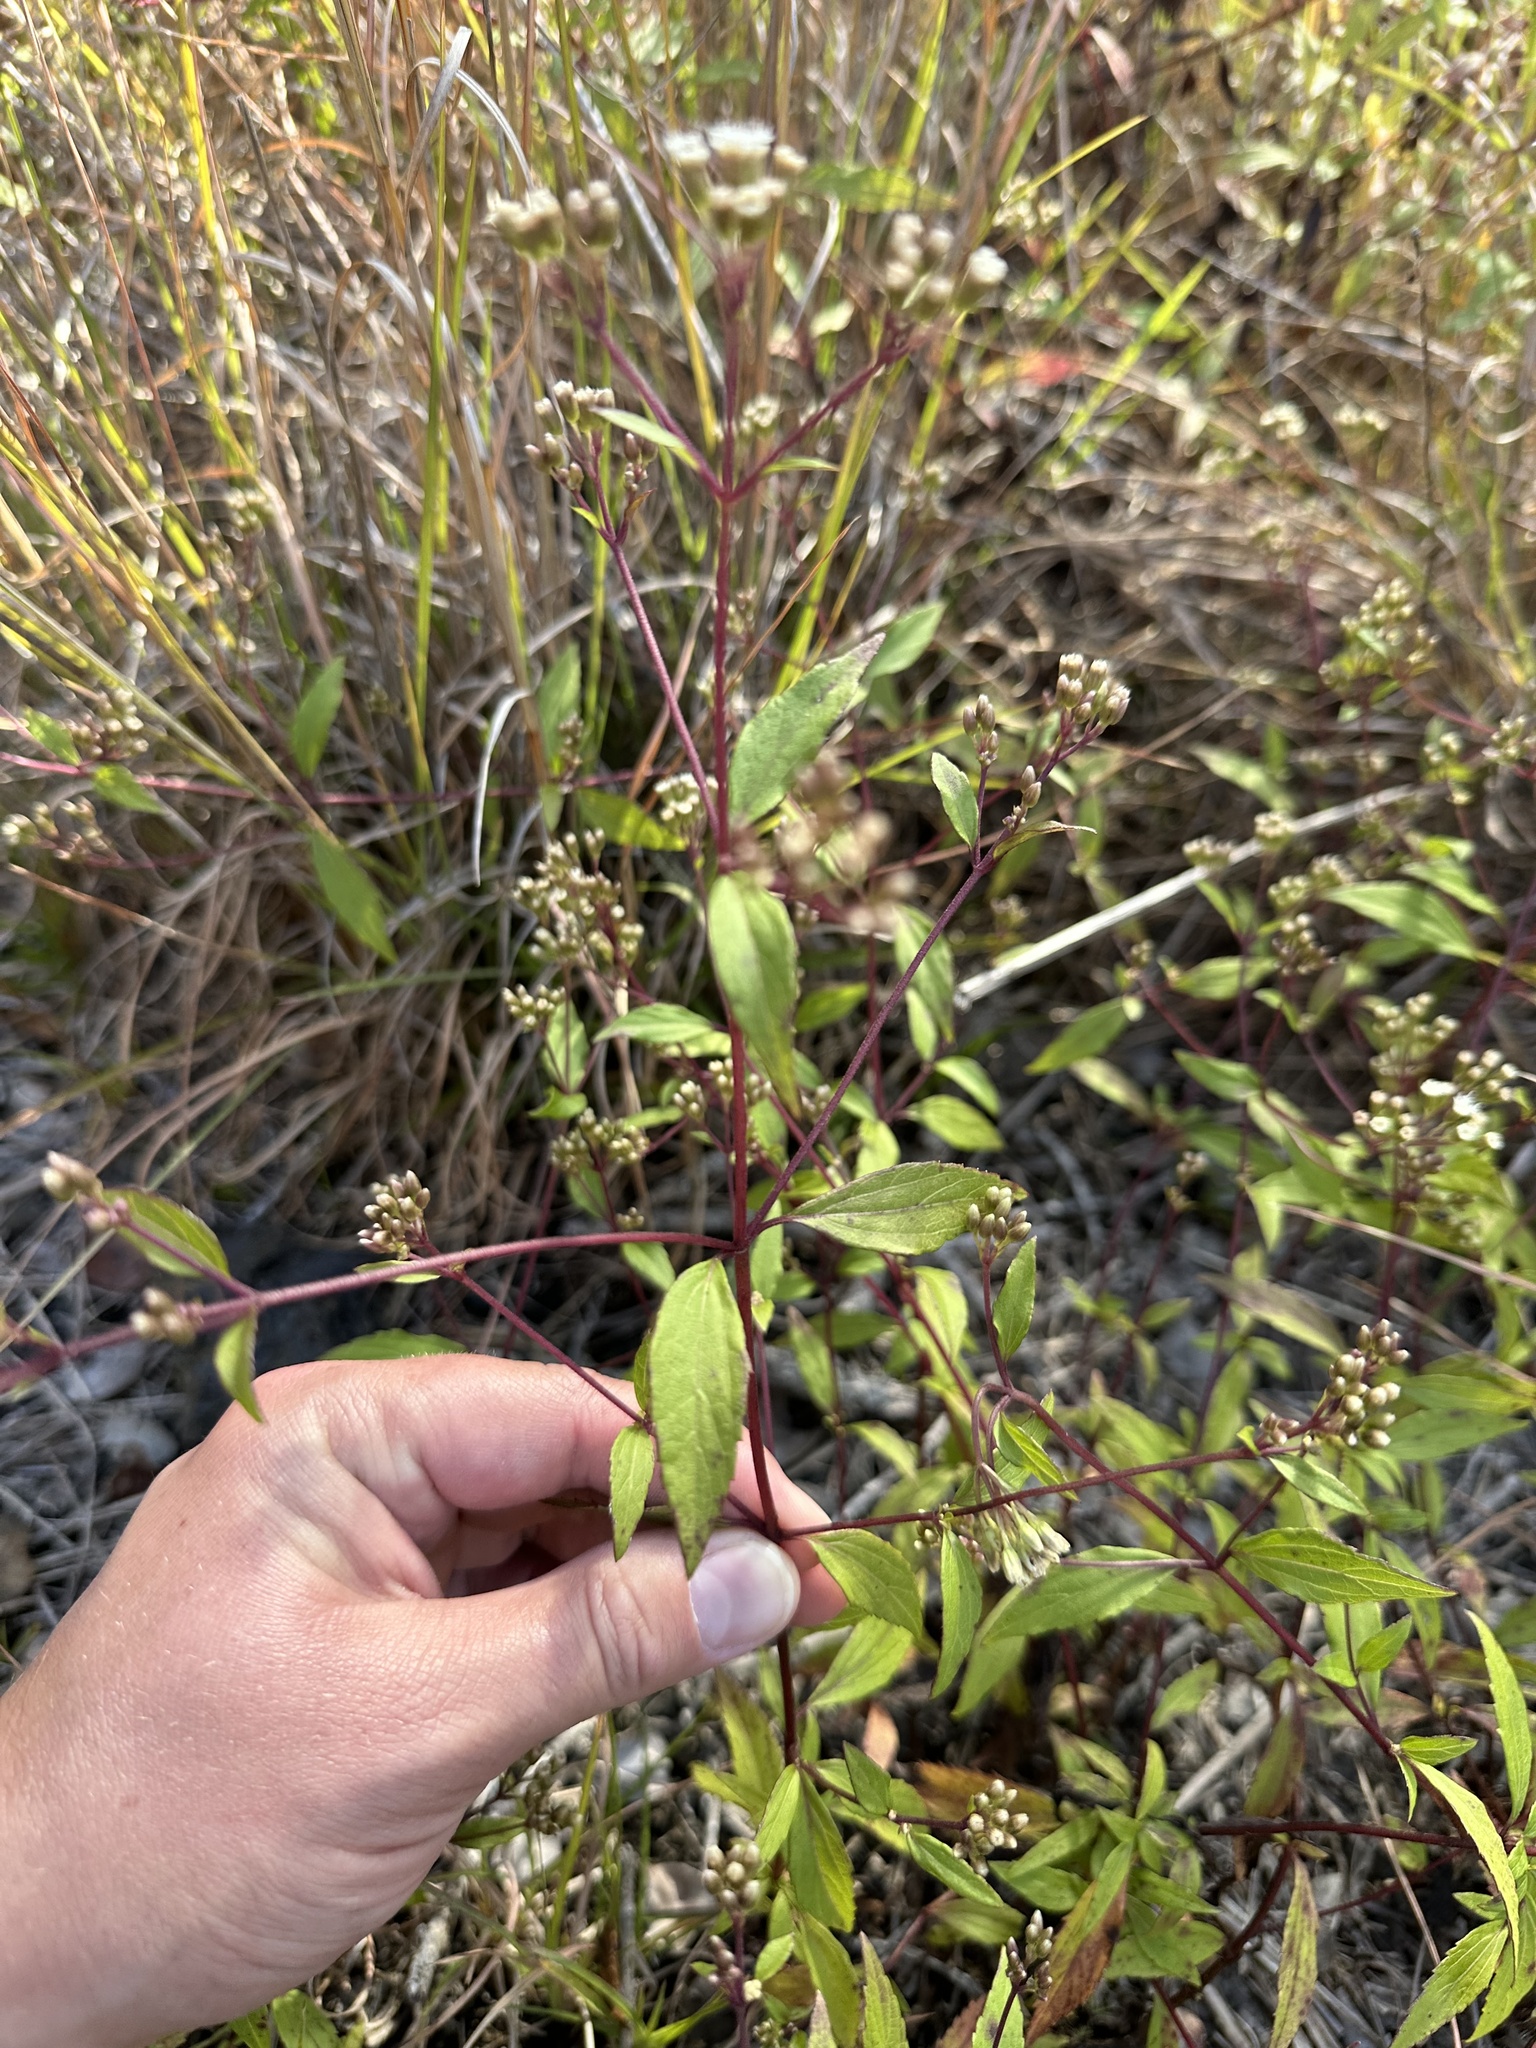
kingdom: Plantae
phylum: Tracheophyta
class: Magnoliopsida
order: Asterales
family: Asteraceae
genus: Ageratina
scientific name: Ageratina riparia
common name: Creeping croftonweed
